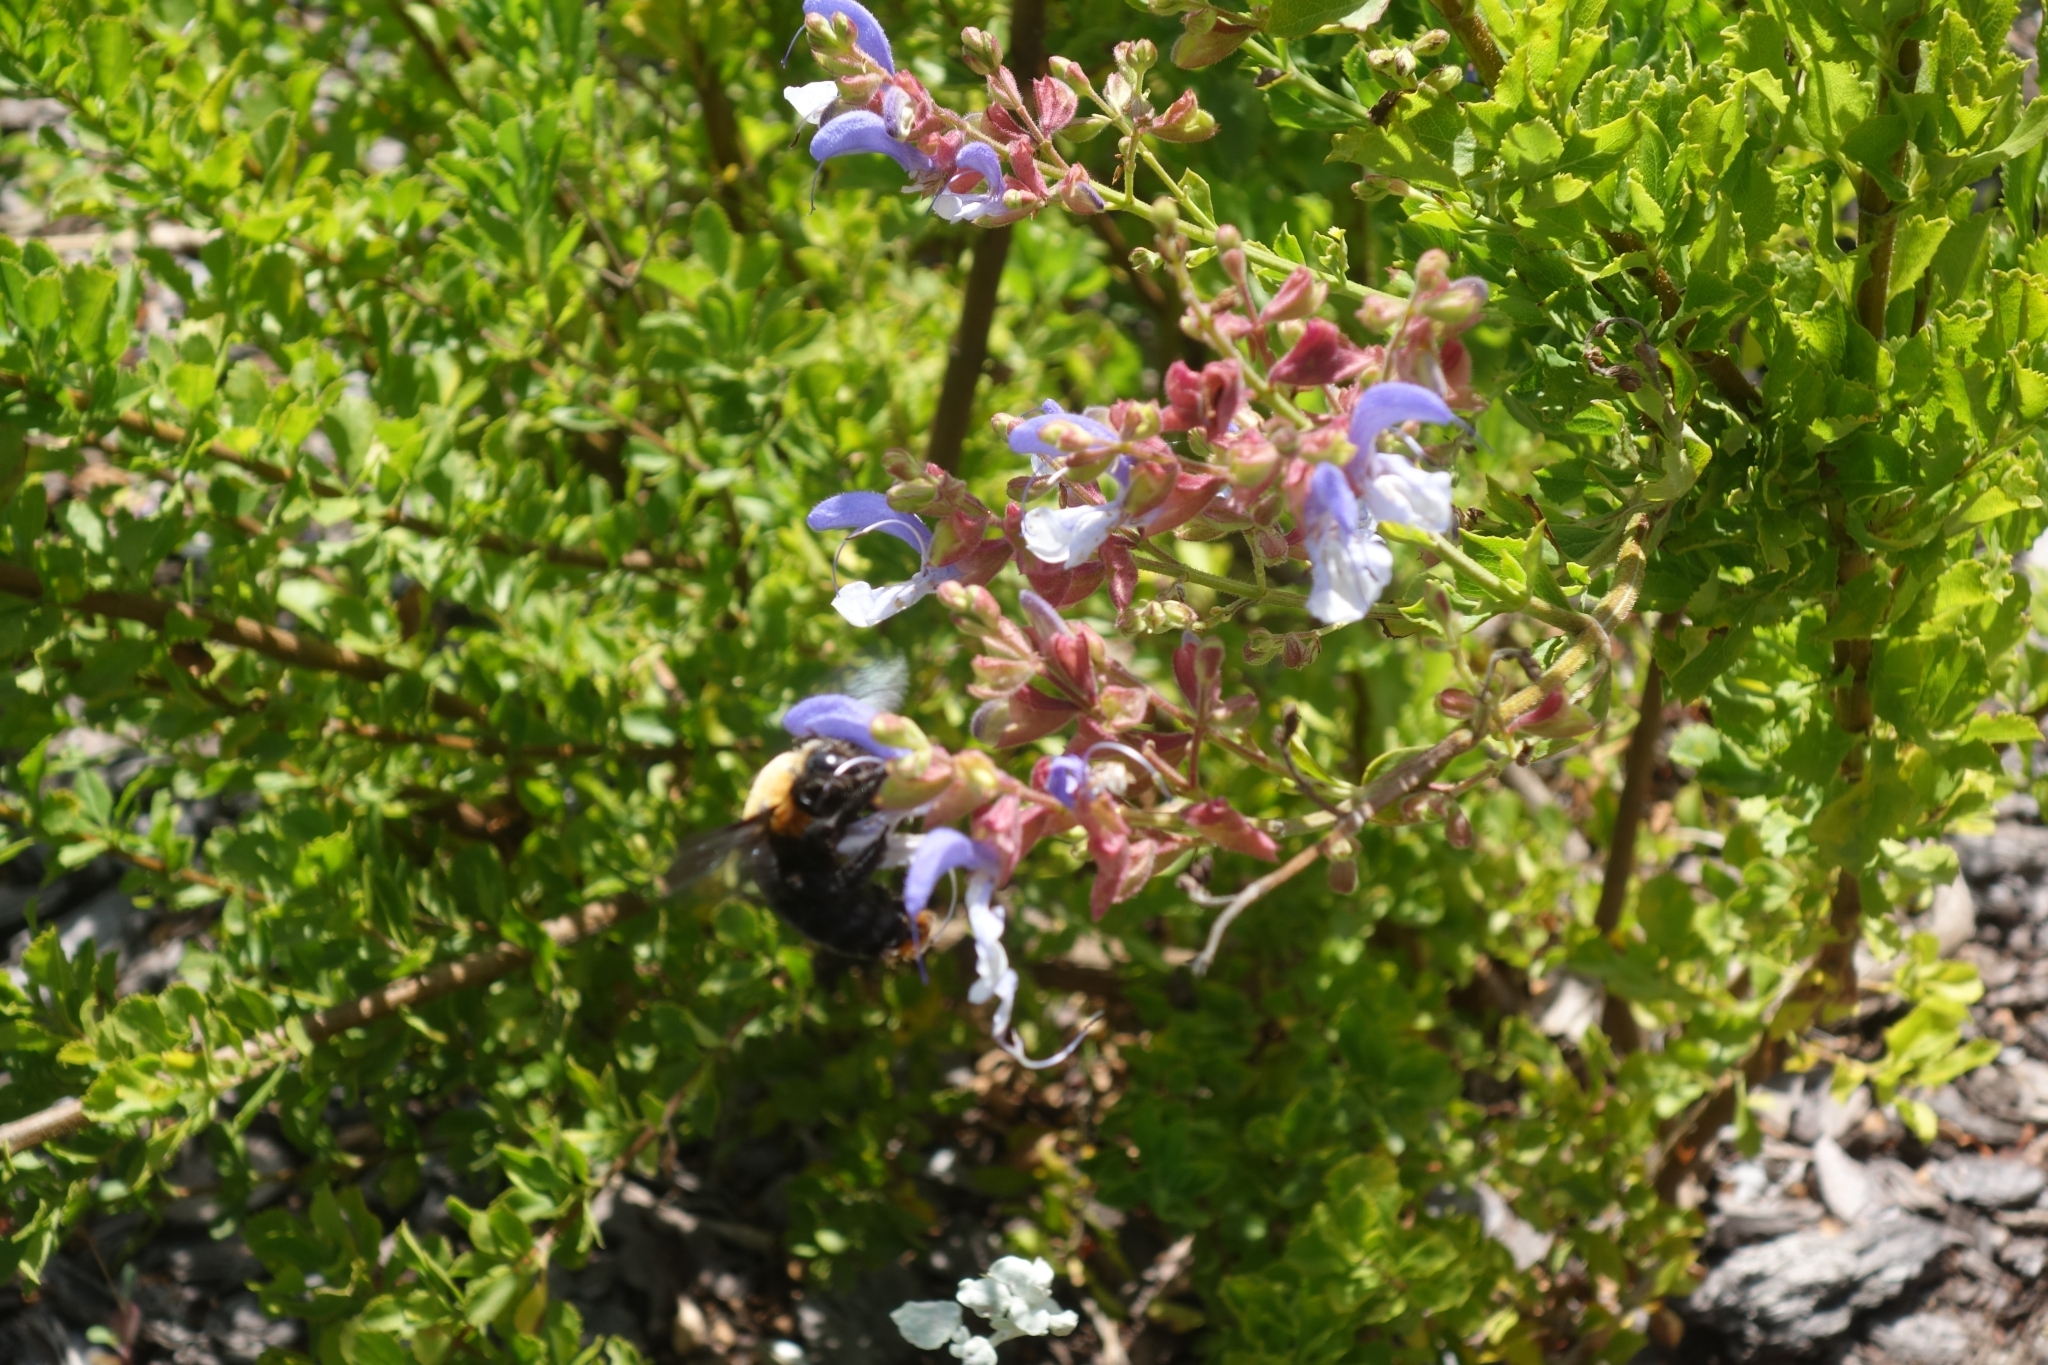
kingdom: Animalia
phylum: Arthropoda
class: Insecta
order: Hymenoptera
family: Apidae
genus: Xylocopa
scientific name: Xylocopa flavorufa
